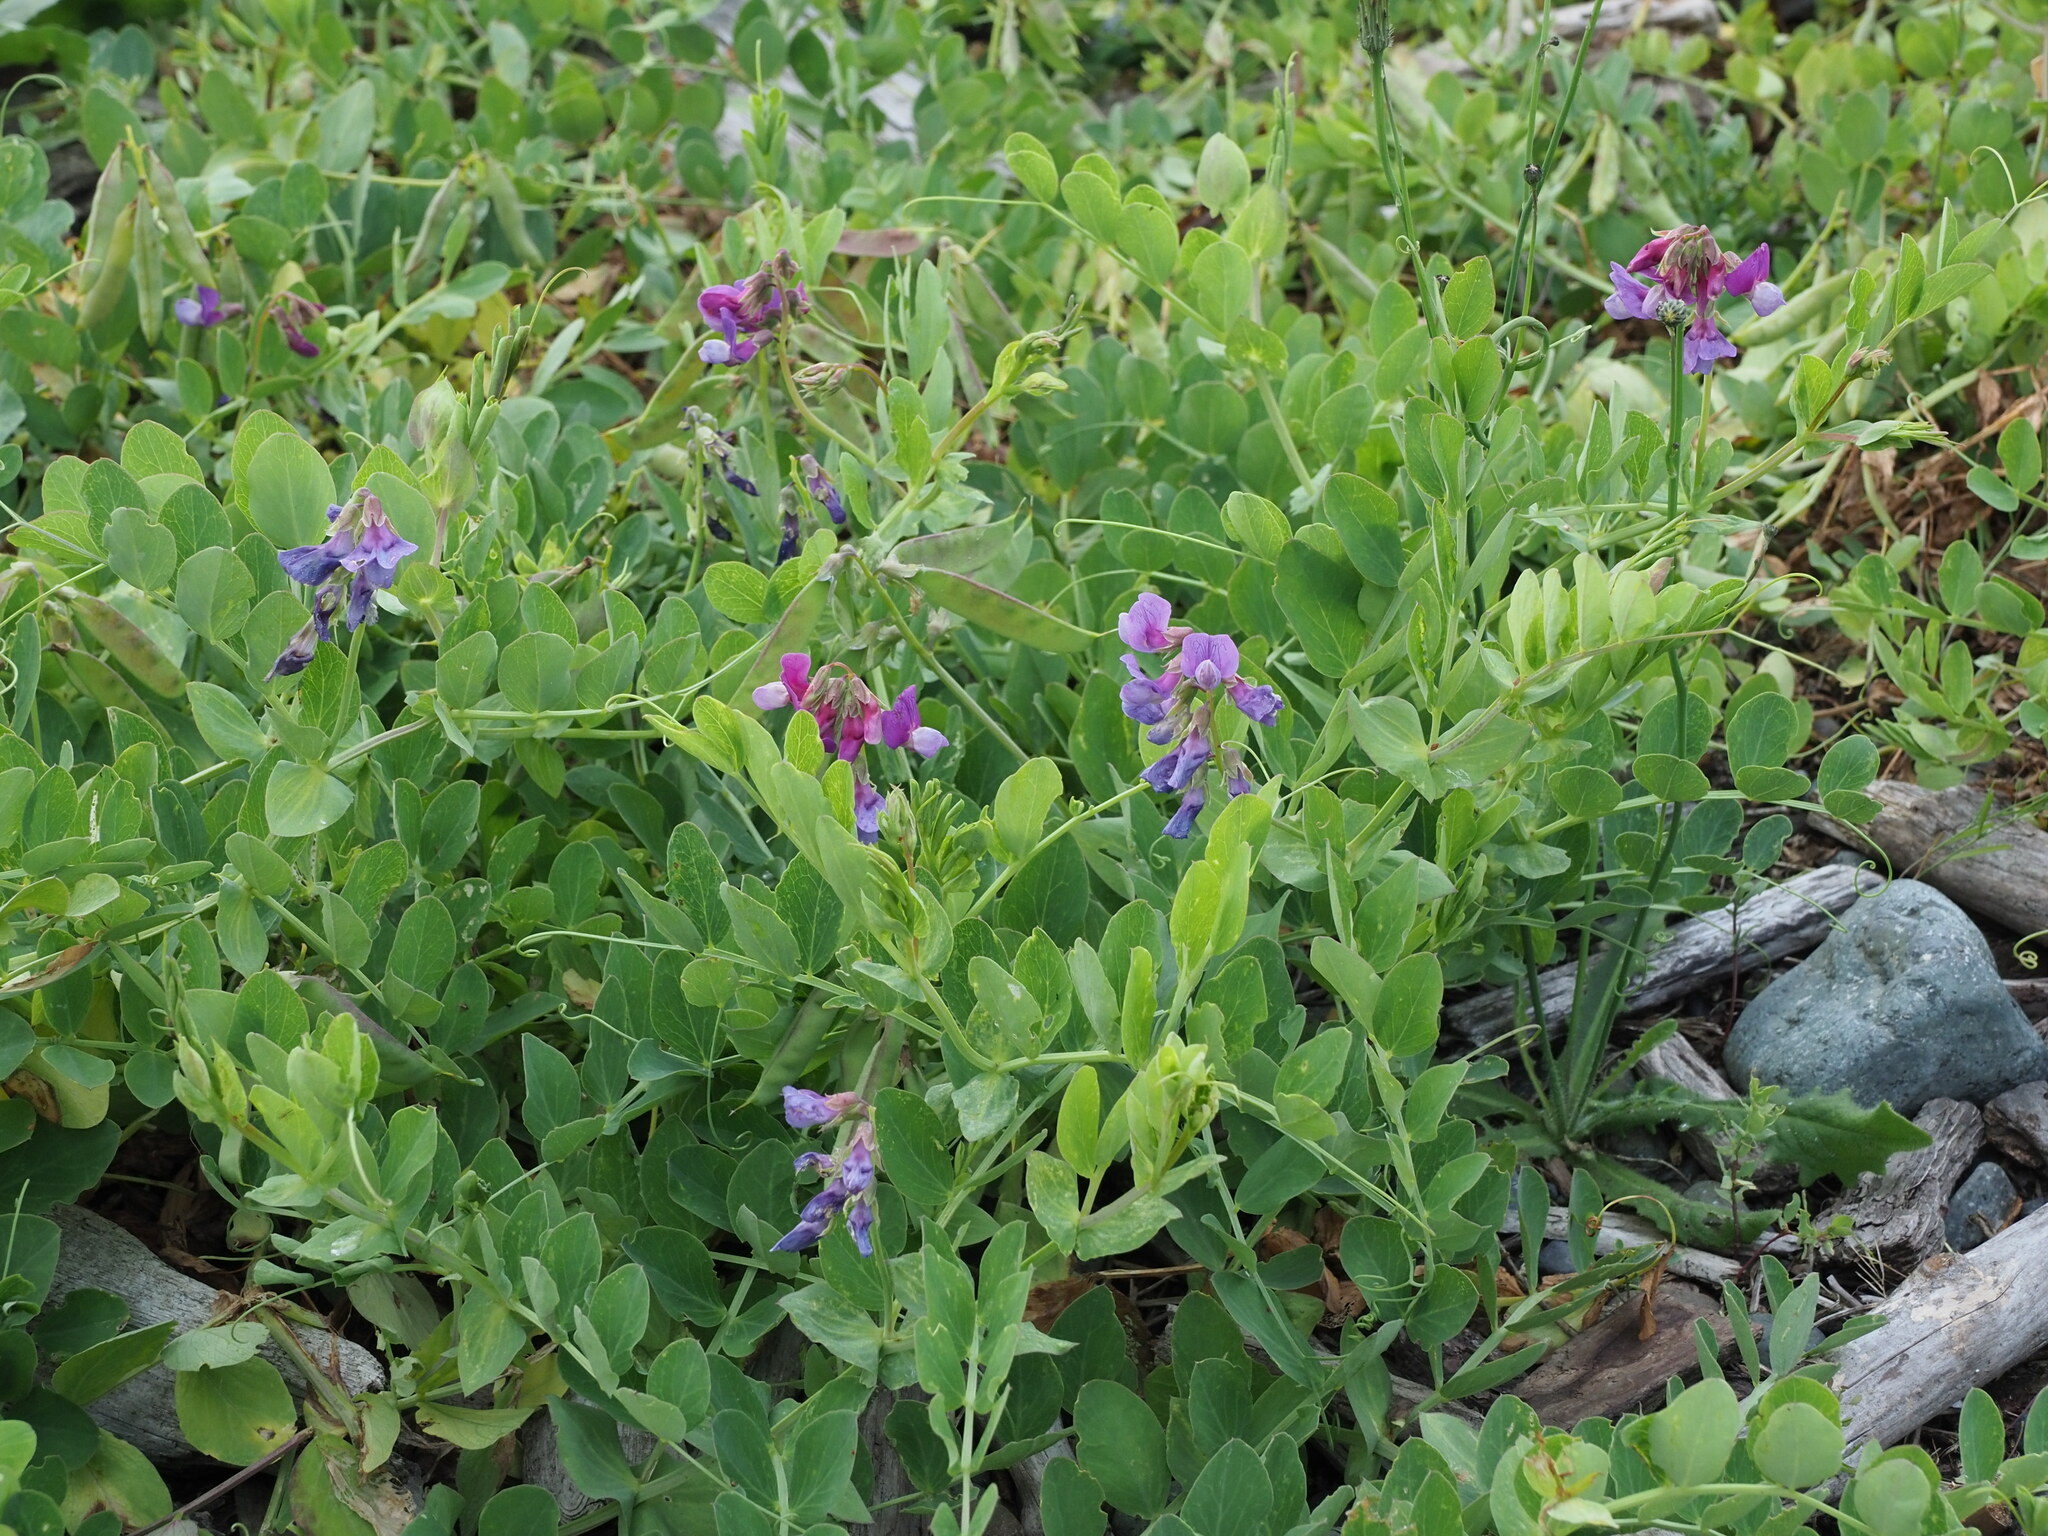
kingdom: Plantae
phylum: Tracheophyta
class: Magnoliopsida
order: Fabales
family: Fabaceae
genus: Lathyrus
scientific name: Lathyrus japonicus
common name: Sea pea
